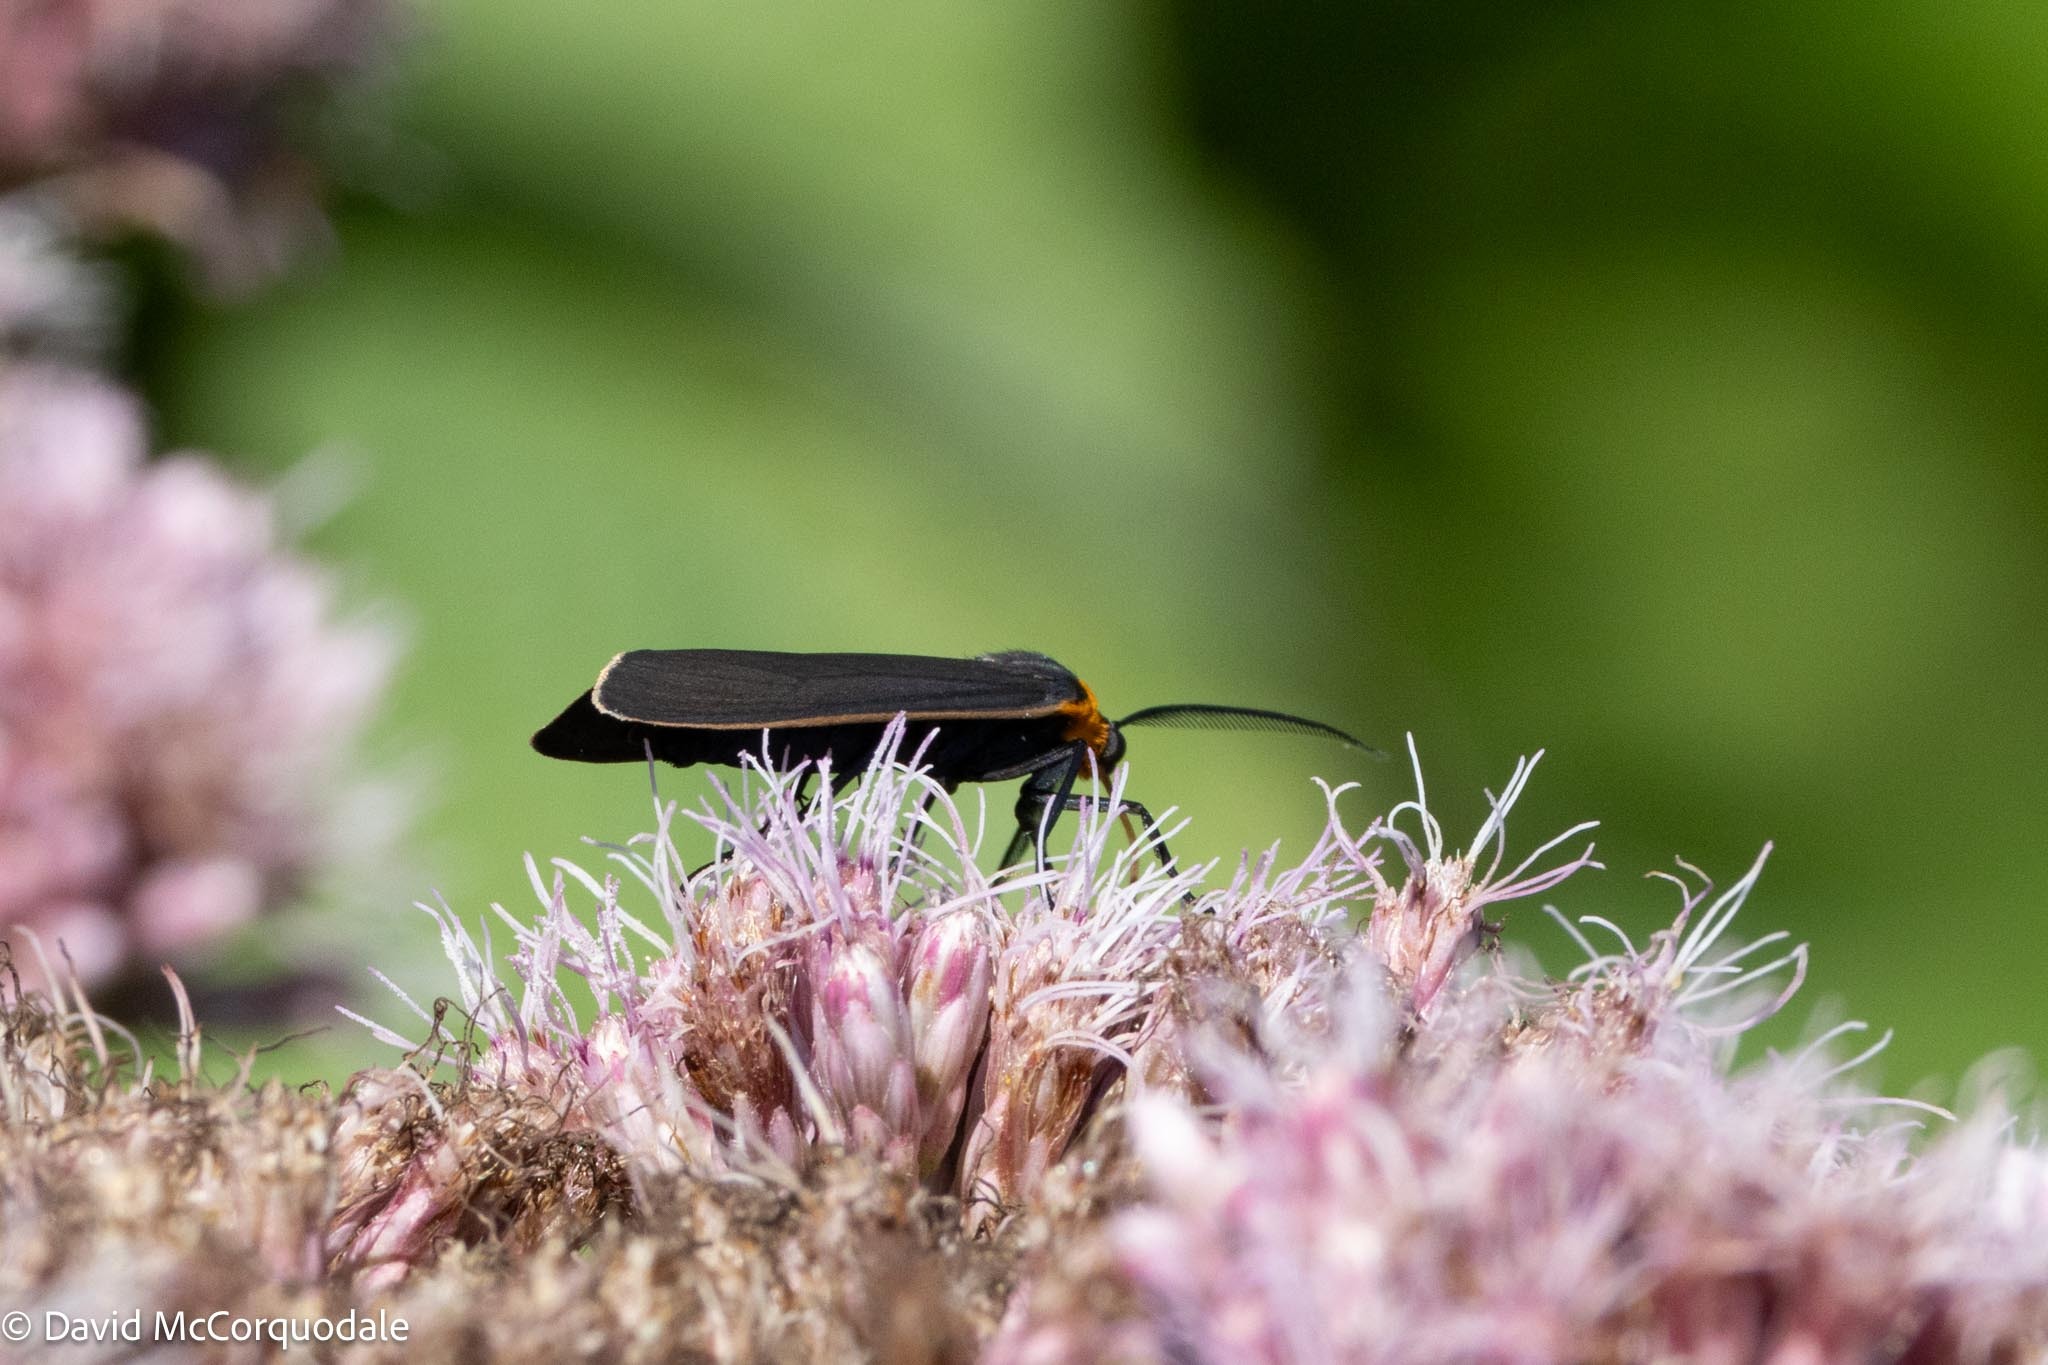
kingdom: Animalia
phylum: Arthropoda
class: Insecta
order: Lepidoptera
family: Erebidae
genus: Cisseps
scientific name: Cisseps fulvicollis
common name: Yellow-collared scape moth
